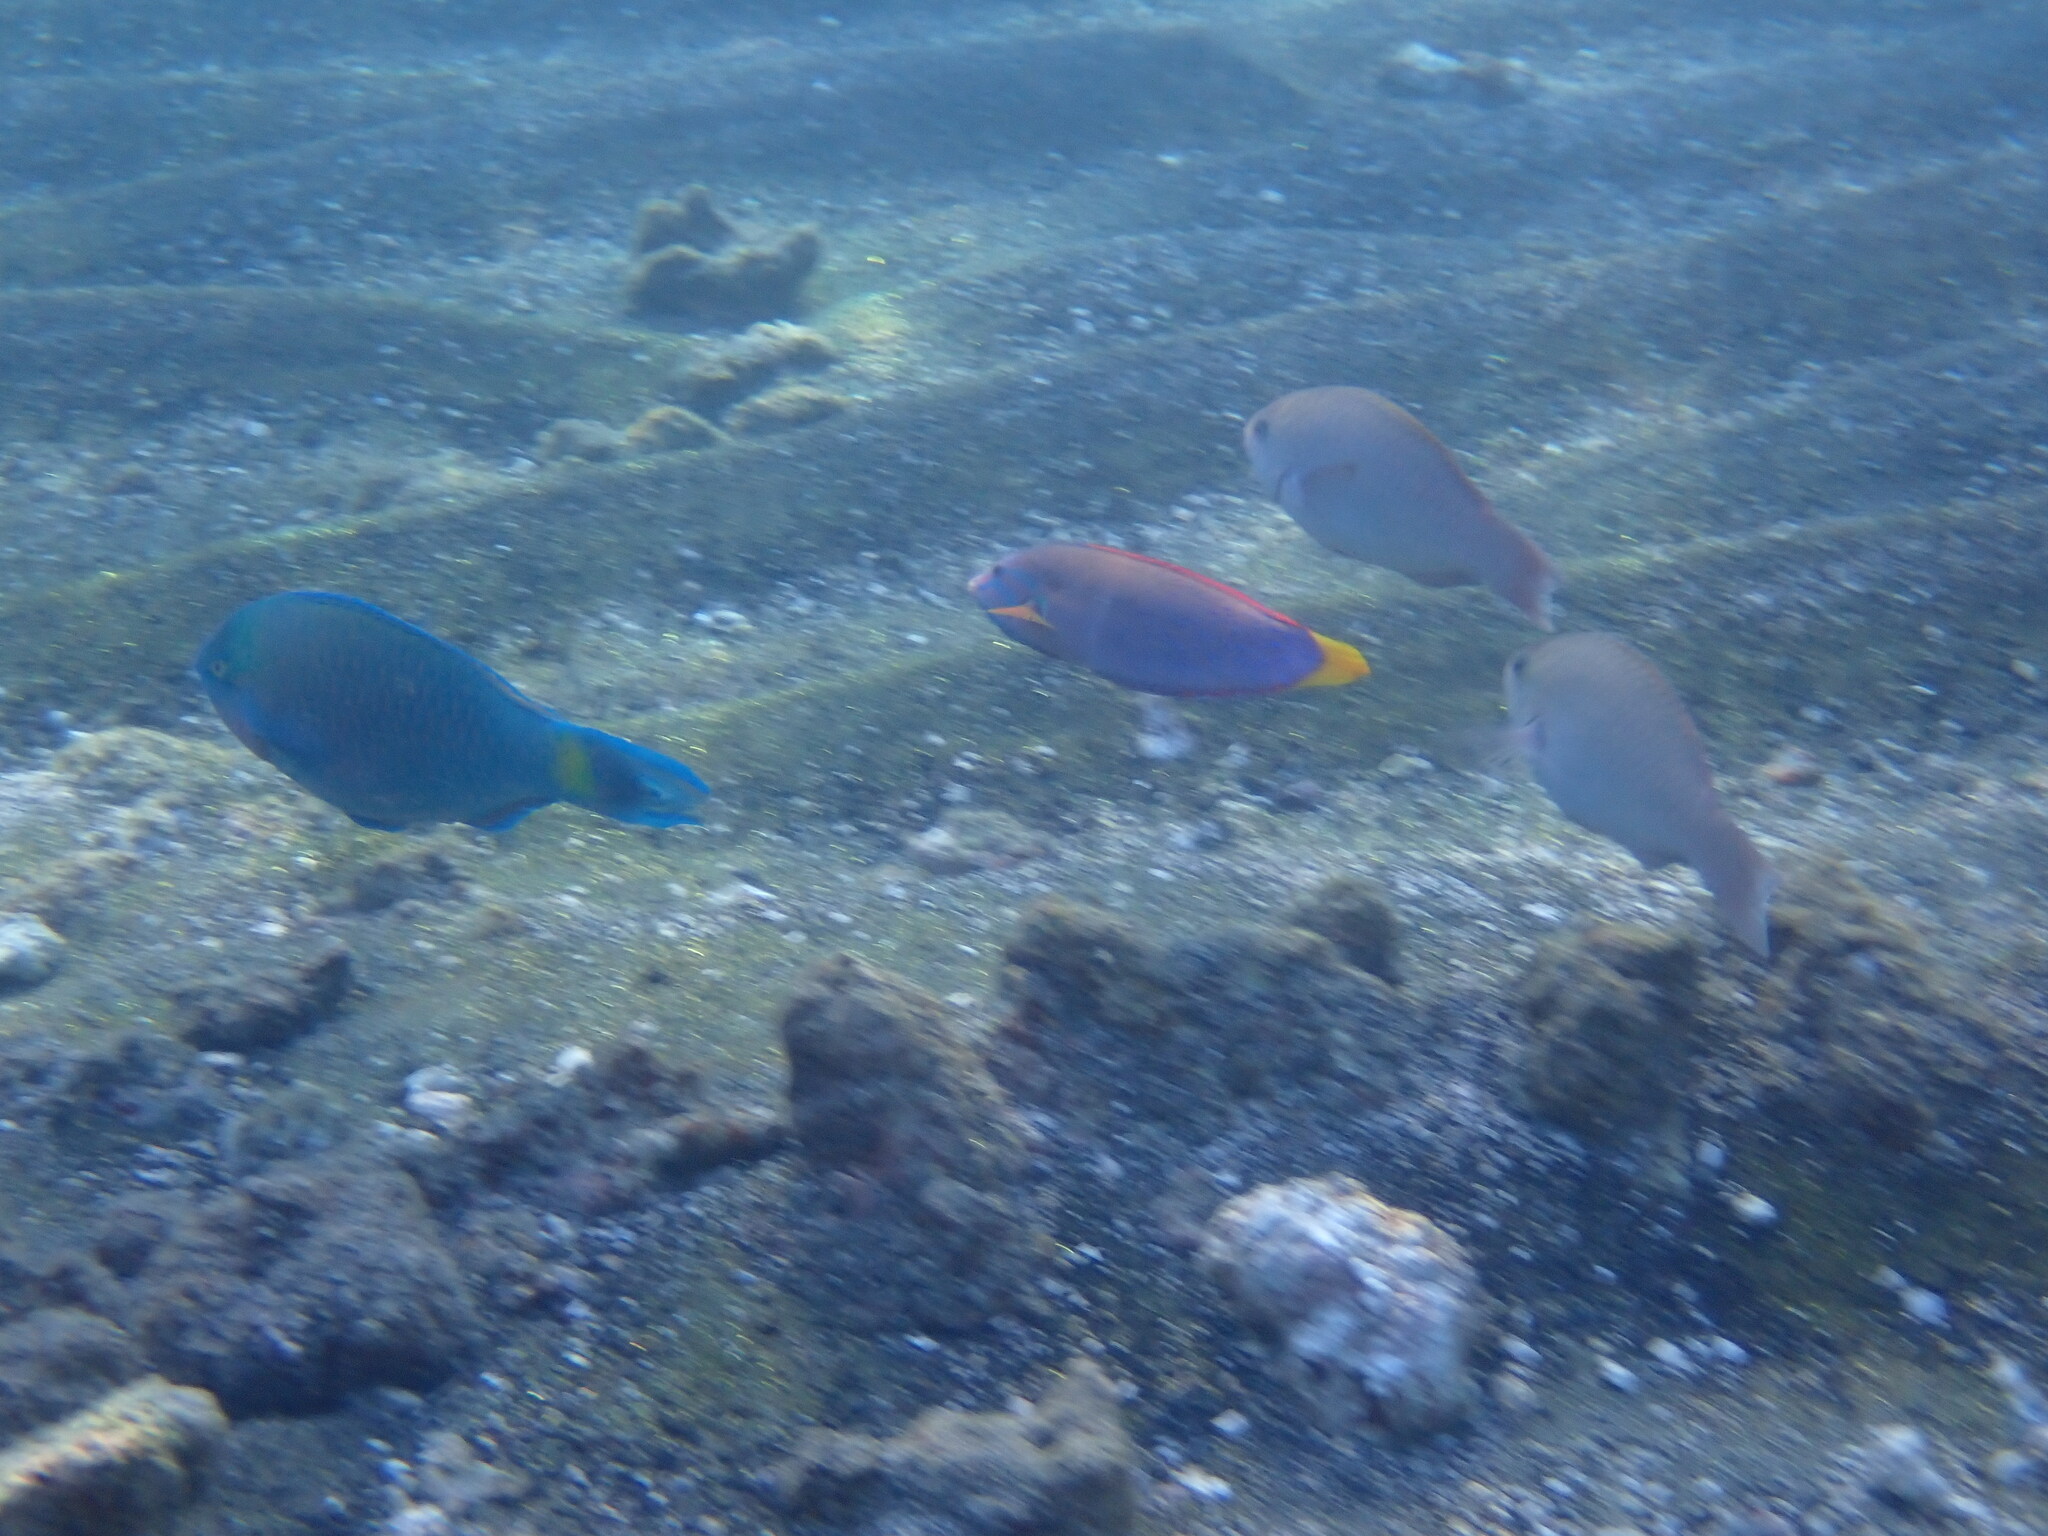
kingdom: Animalia
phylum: Chordata
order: Perciformes
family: Labridae
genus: Coris
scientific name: Coris gaimard
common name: Yellowtail coris
